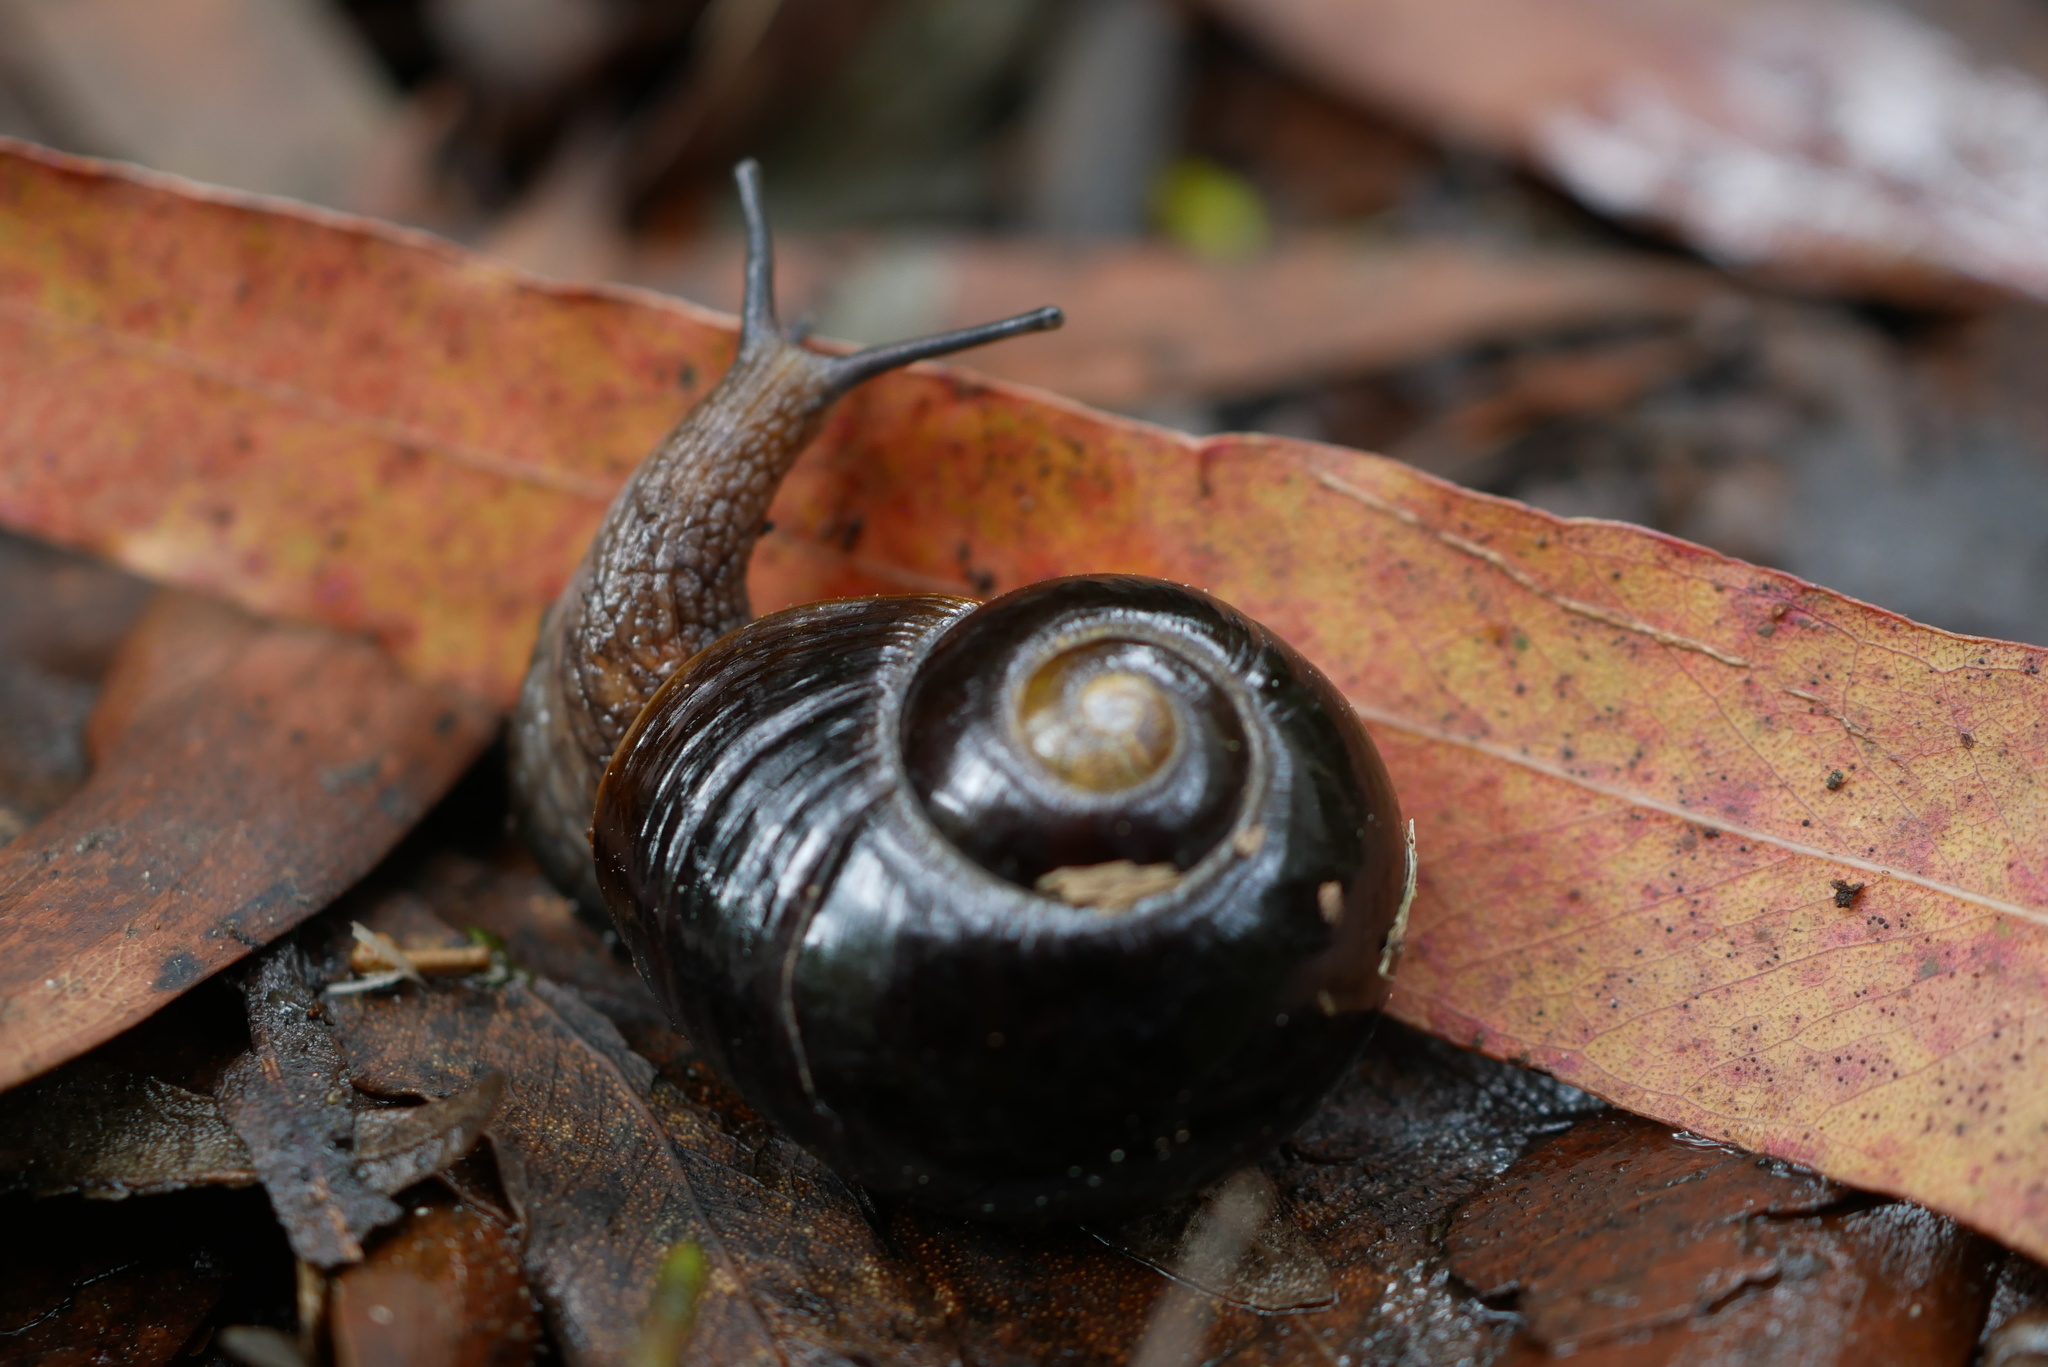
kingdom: Animalia
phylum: Mollusca
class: Gastropoda
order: Stylommatophora
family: Rhytididae
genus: Victaphanta
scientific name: Victaphanta compacta
